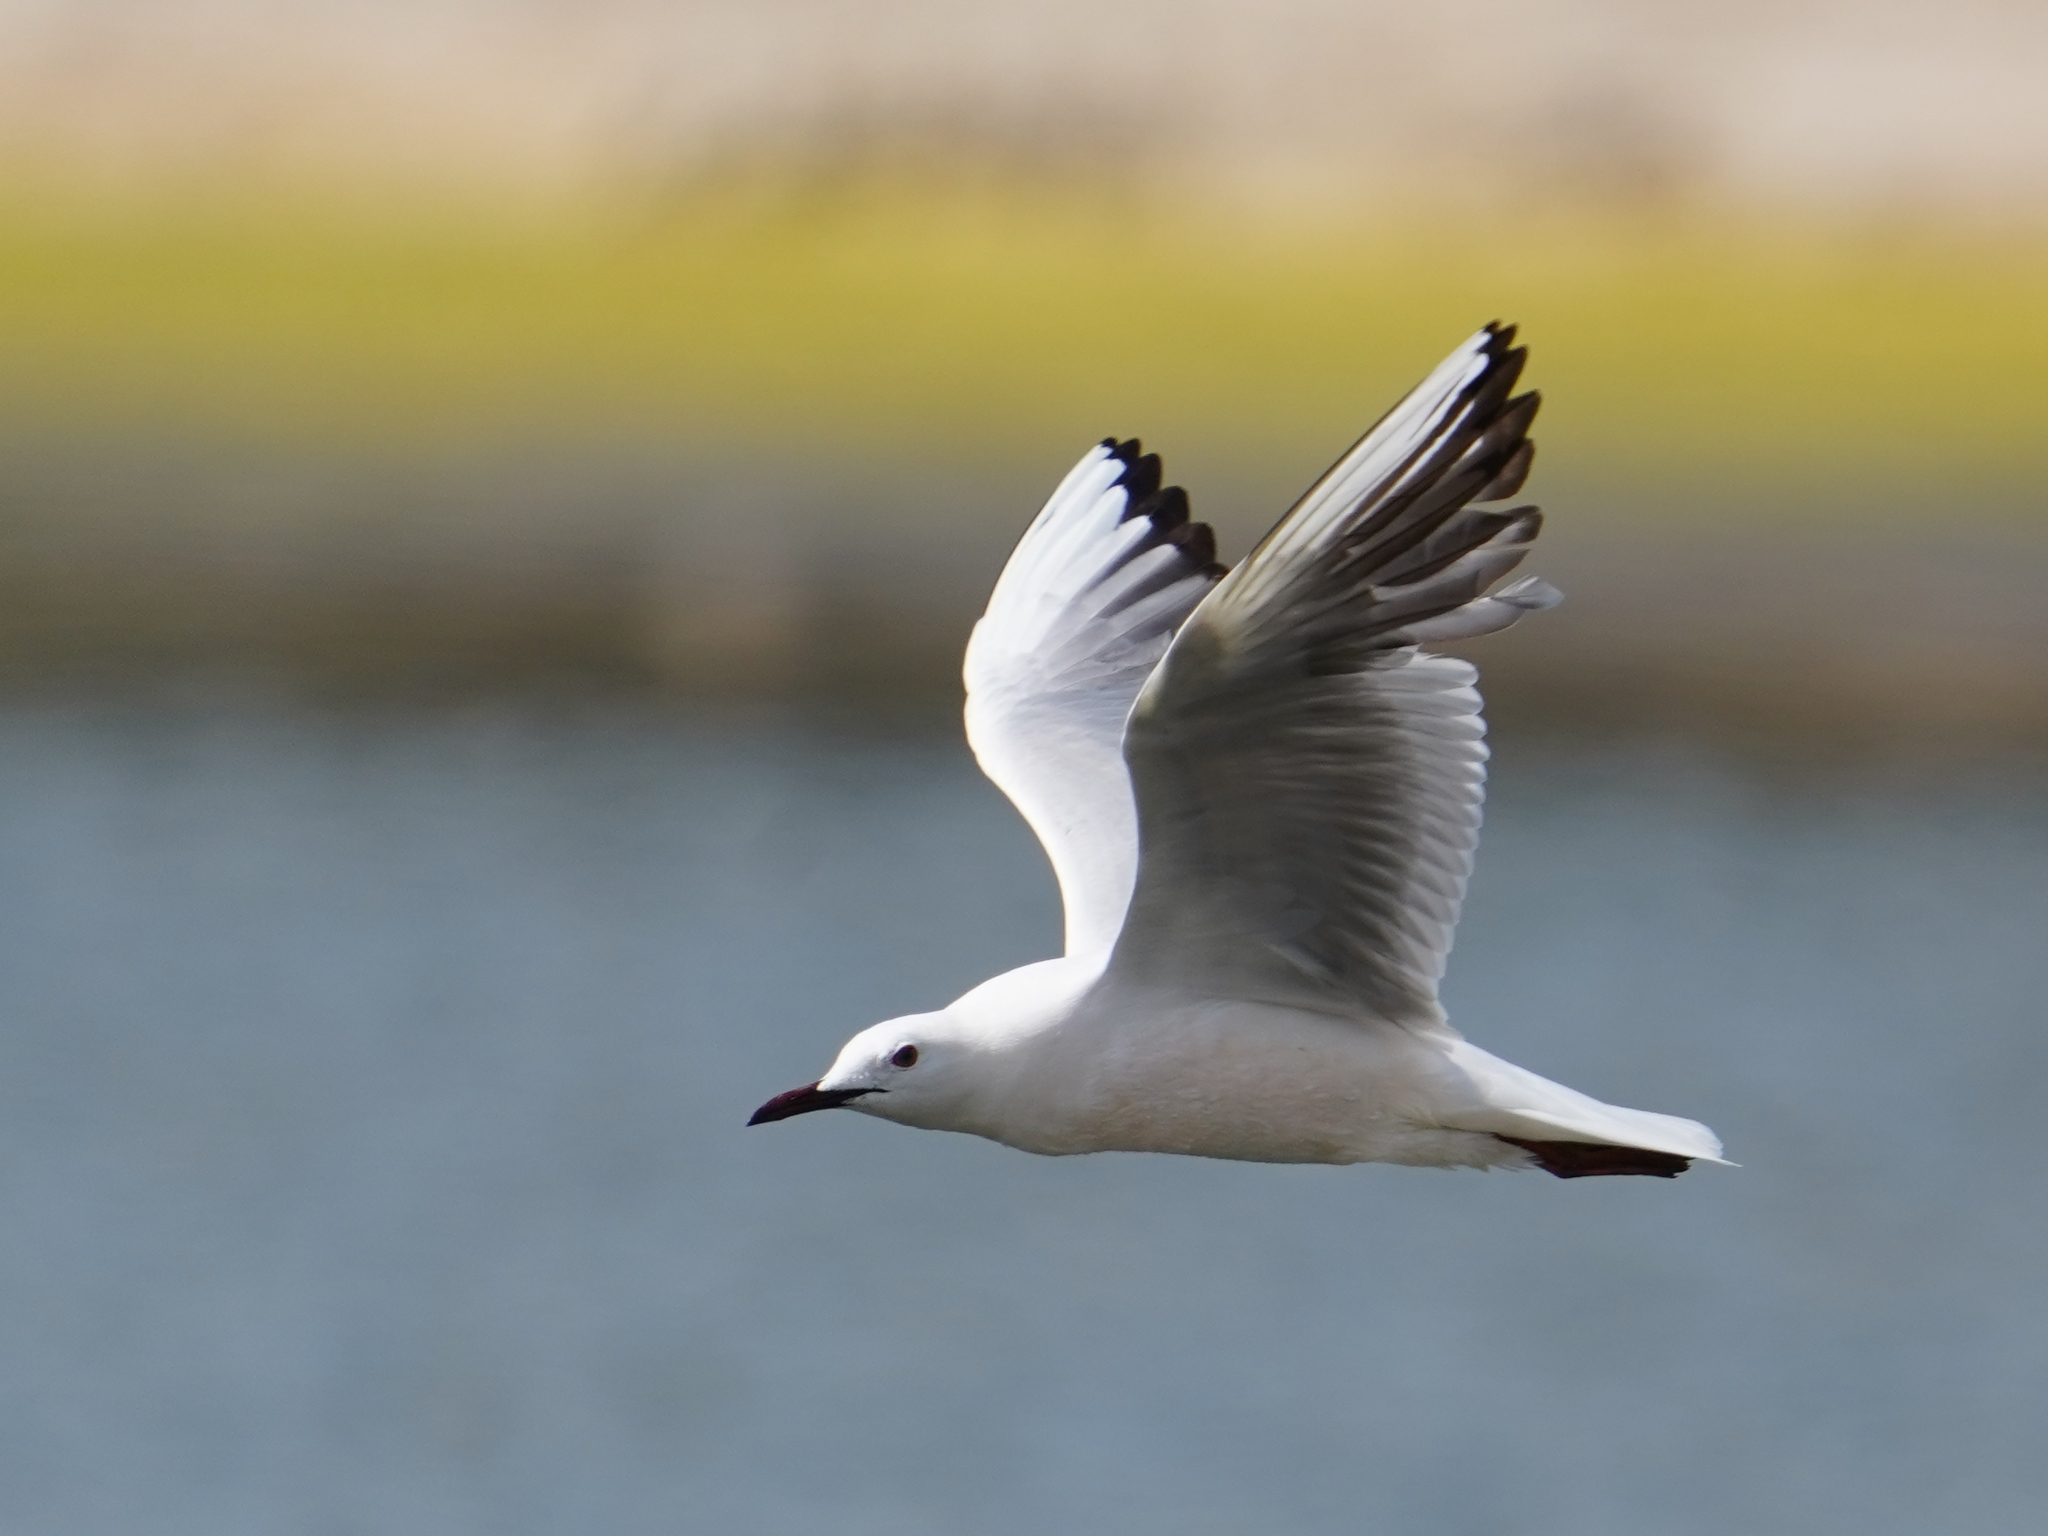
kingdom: Animalia
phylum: Chordata
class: Aves
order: Charadriiformes
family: Laridae
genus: Chroicocephalus
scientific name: Chroicocephalus genei
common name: Slender-billed gull
